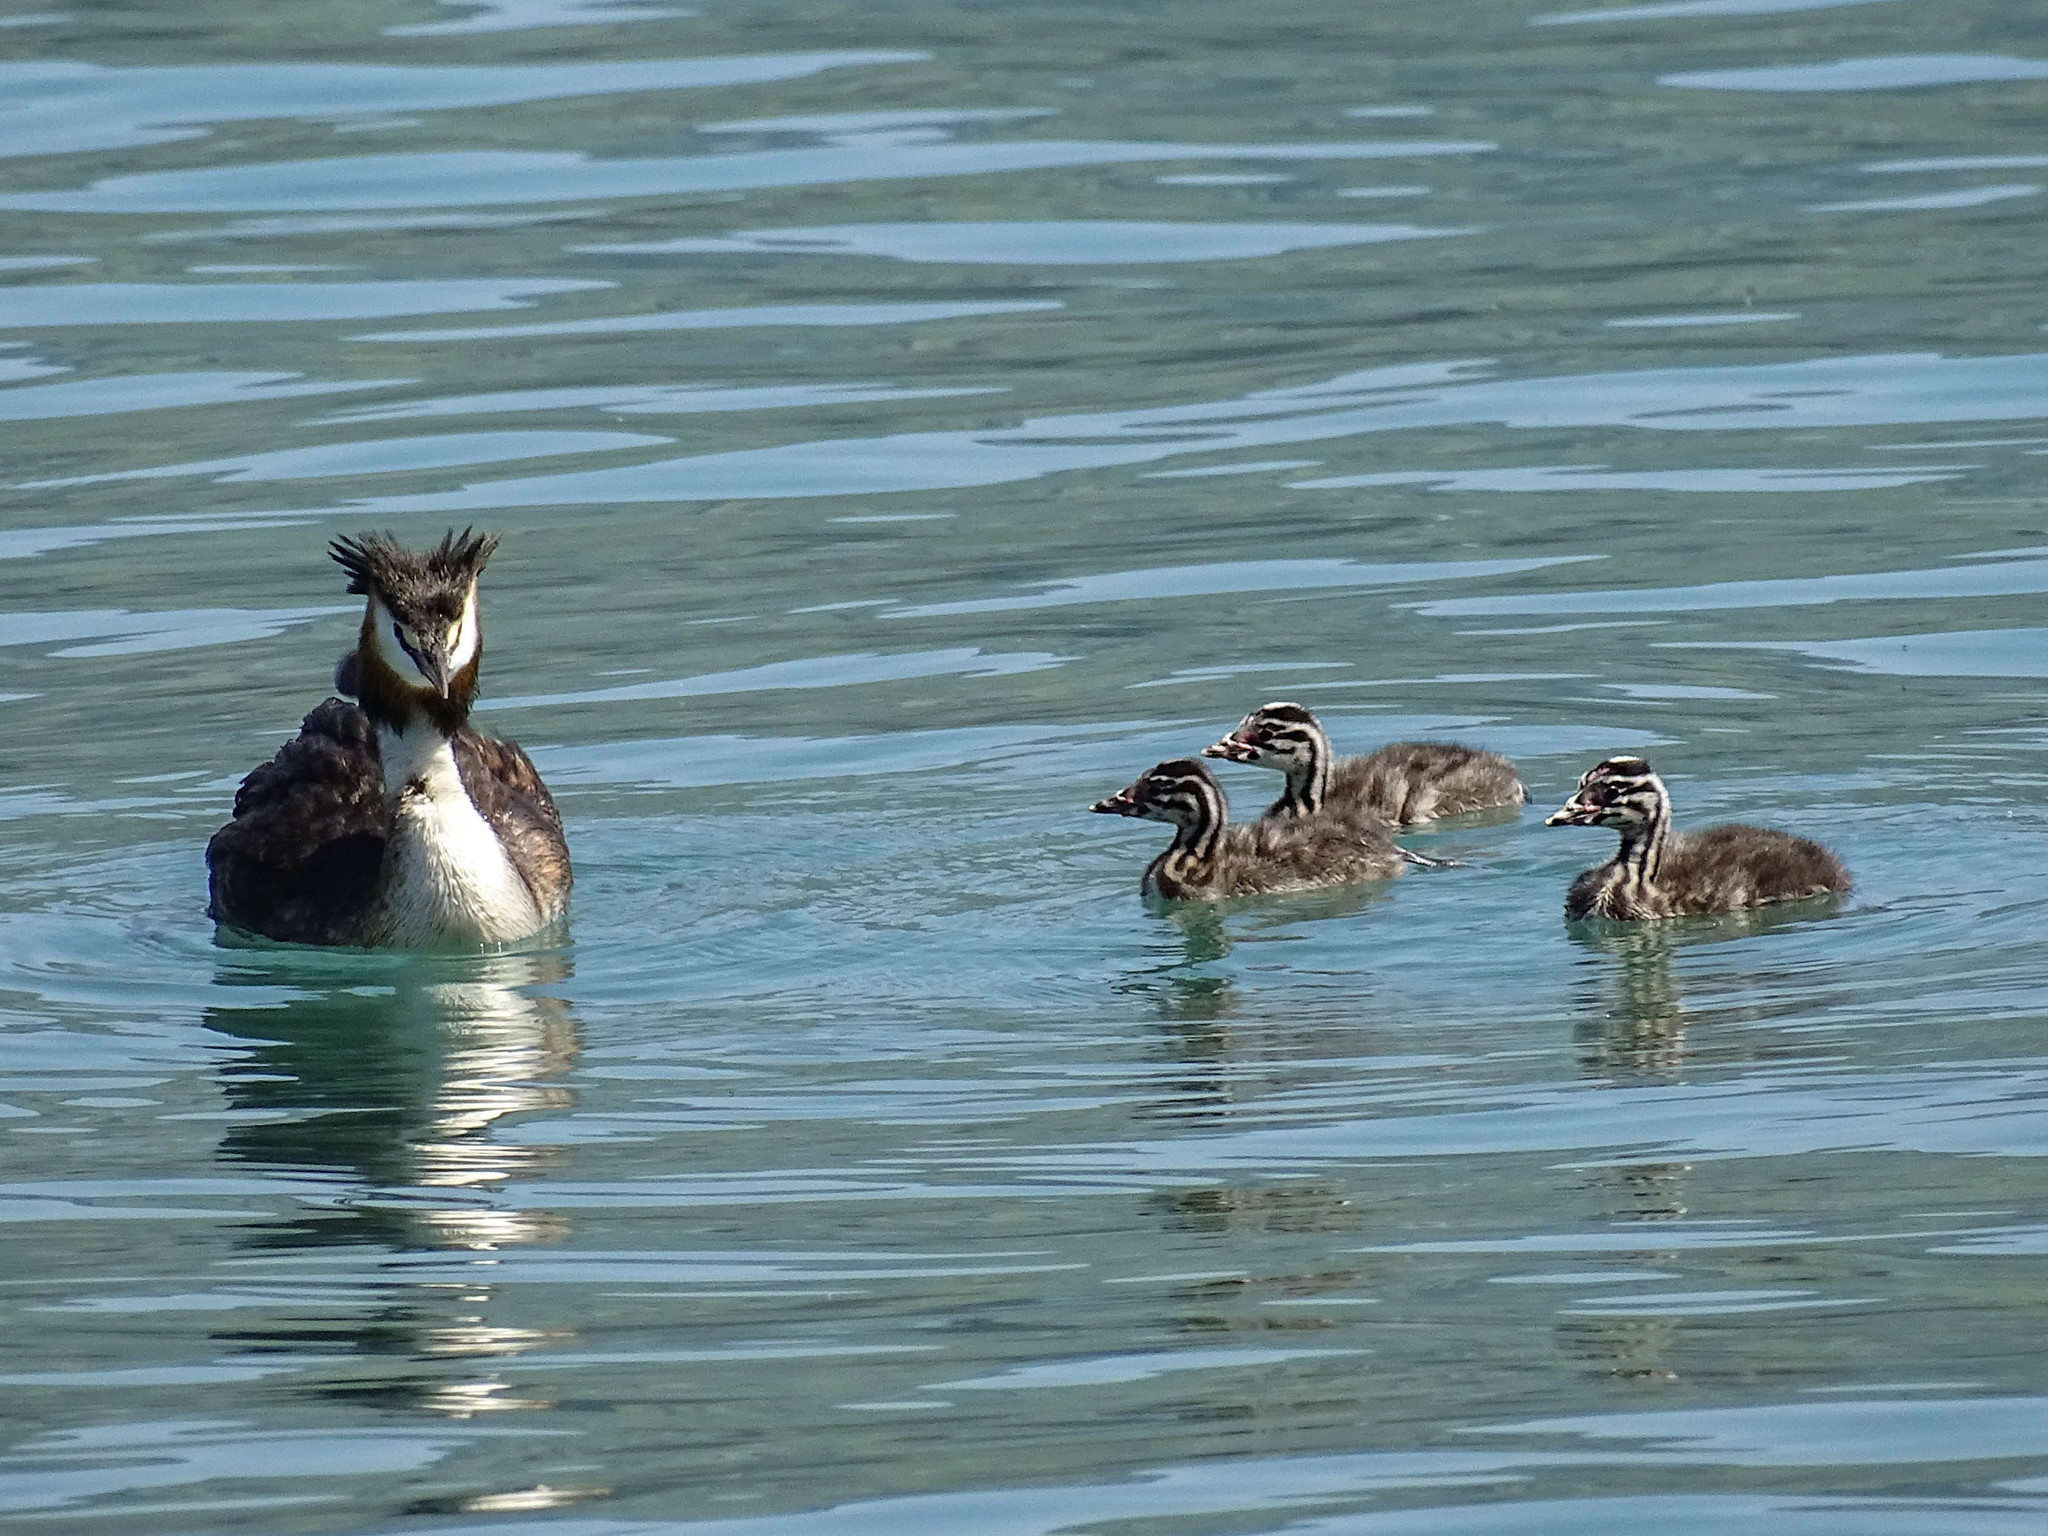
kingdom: Animalia
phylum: Chordata
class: Aves
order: Podicipediformes
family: Podicipedidae
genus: Podiceps
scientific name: Podiceps cristatus
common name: Great crested grebe
